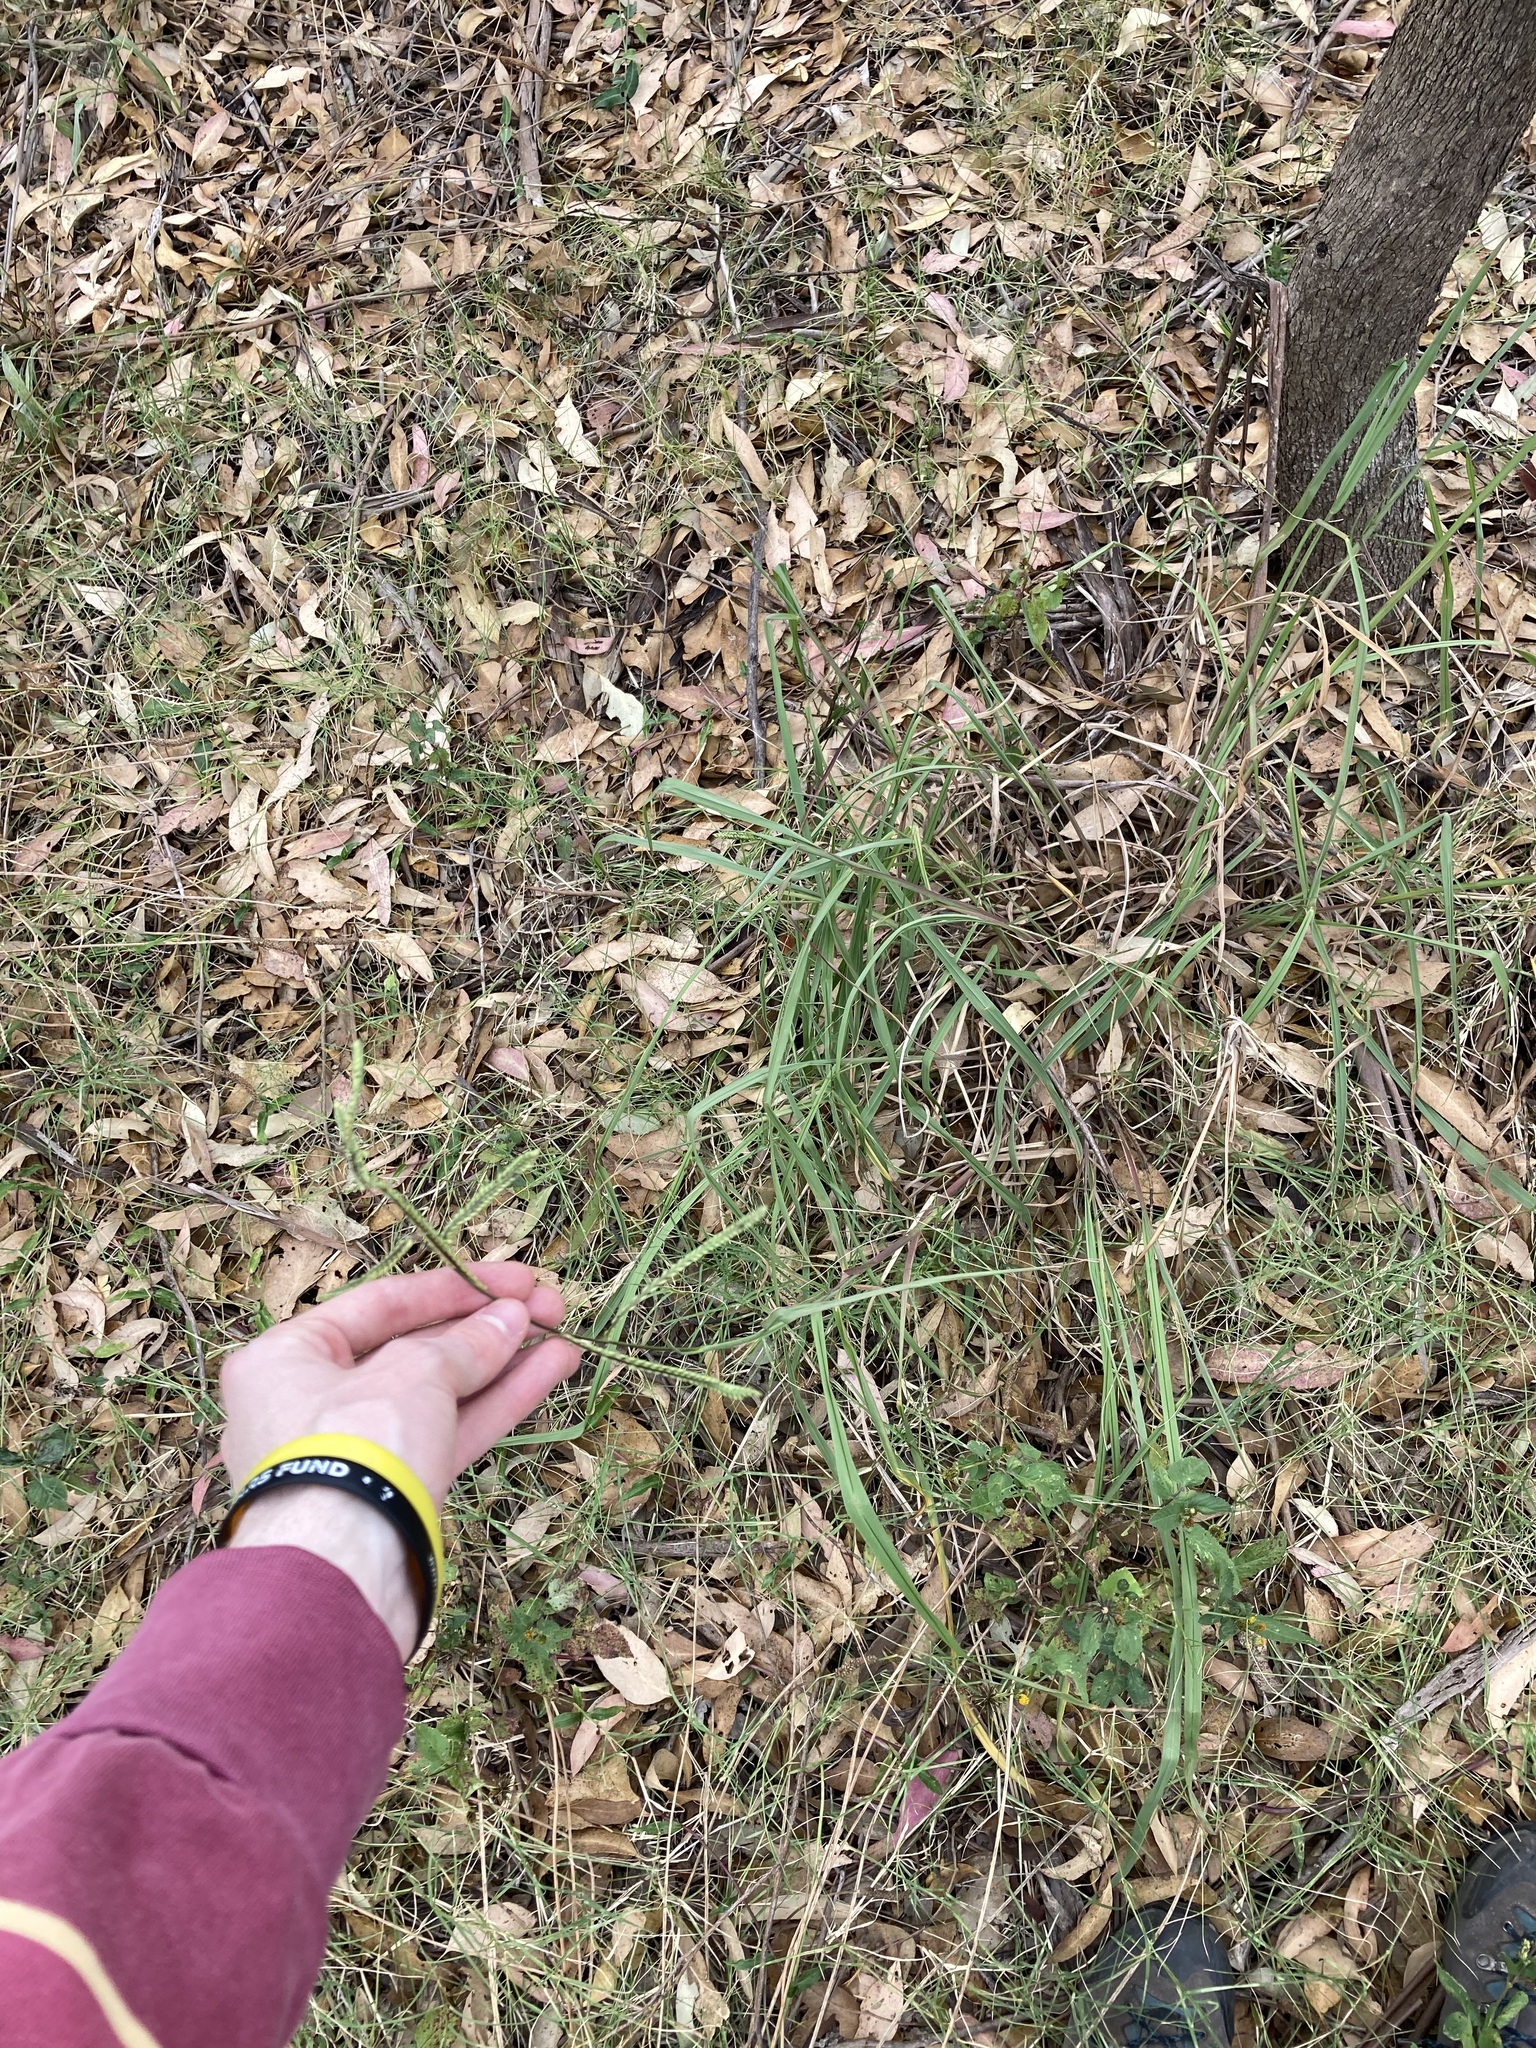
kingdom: Plantae
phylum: Tracheophyta
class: Liliopsida
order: Poales
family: Poaceae
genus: Paspalum
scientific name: Paspalum dilatatum
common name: Dallisgrass
